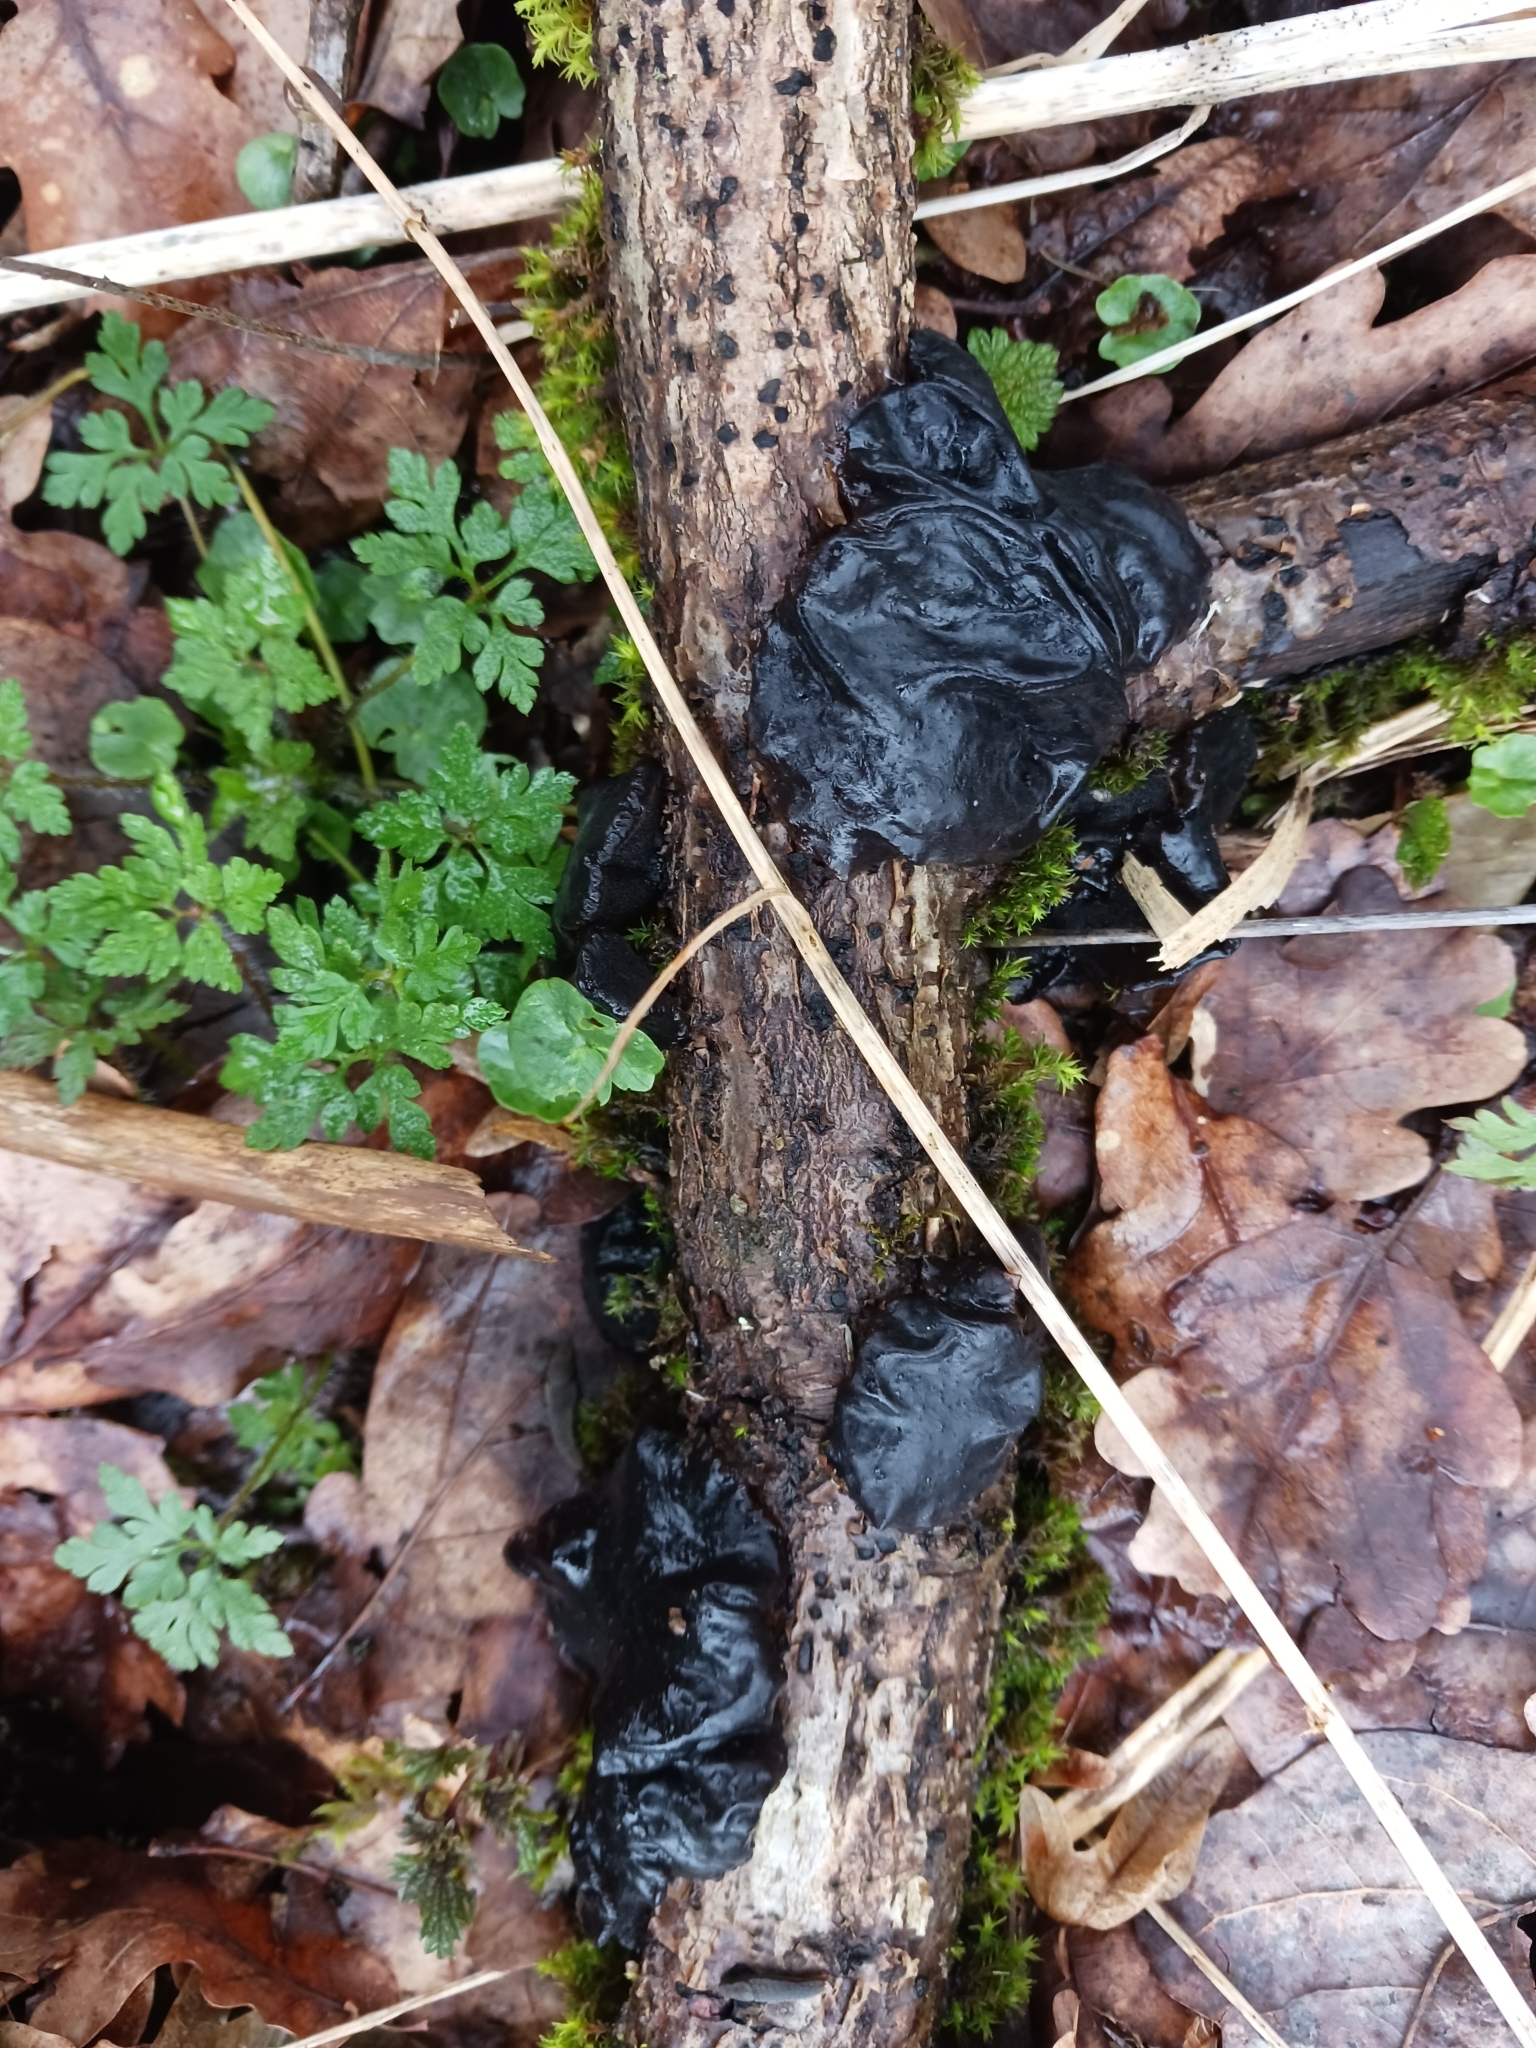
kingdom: Fungi
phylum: Basidiomycota
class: Agaricomycetes
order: Auriculariales
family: Auriculariaceae
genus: Exidia
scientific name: Exidia glandulosa
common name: Witches' butter
